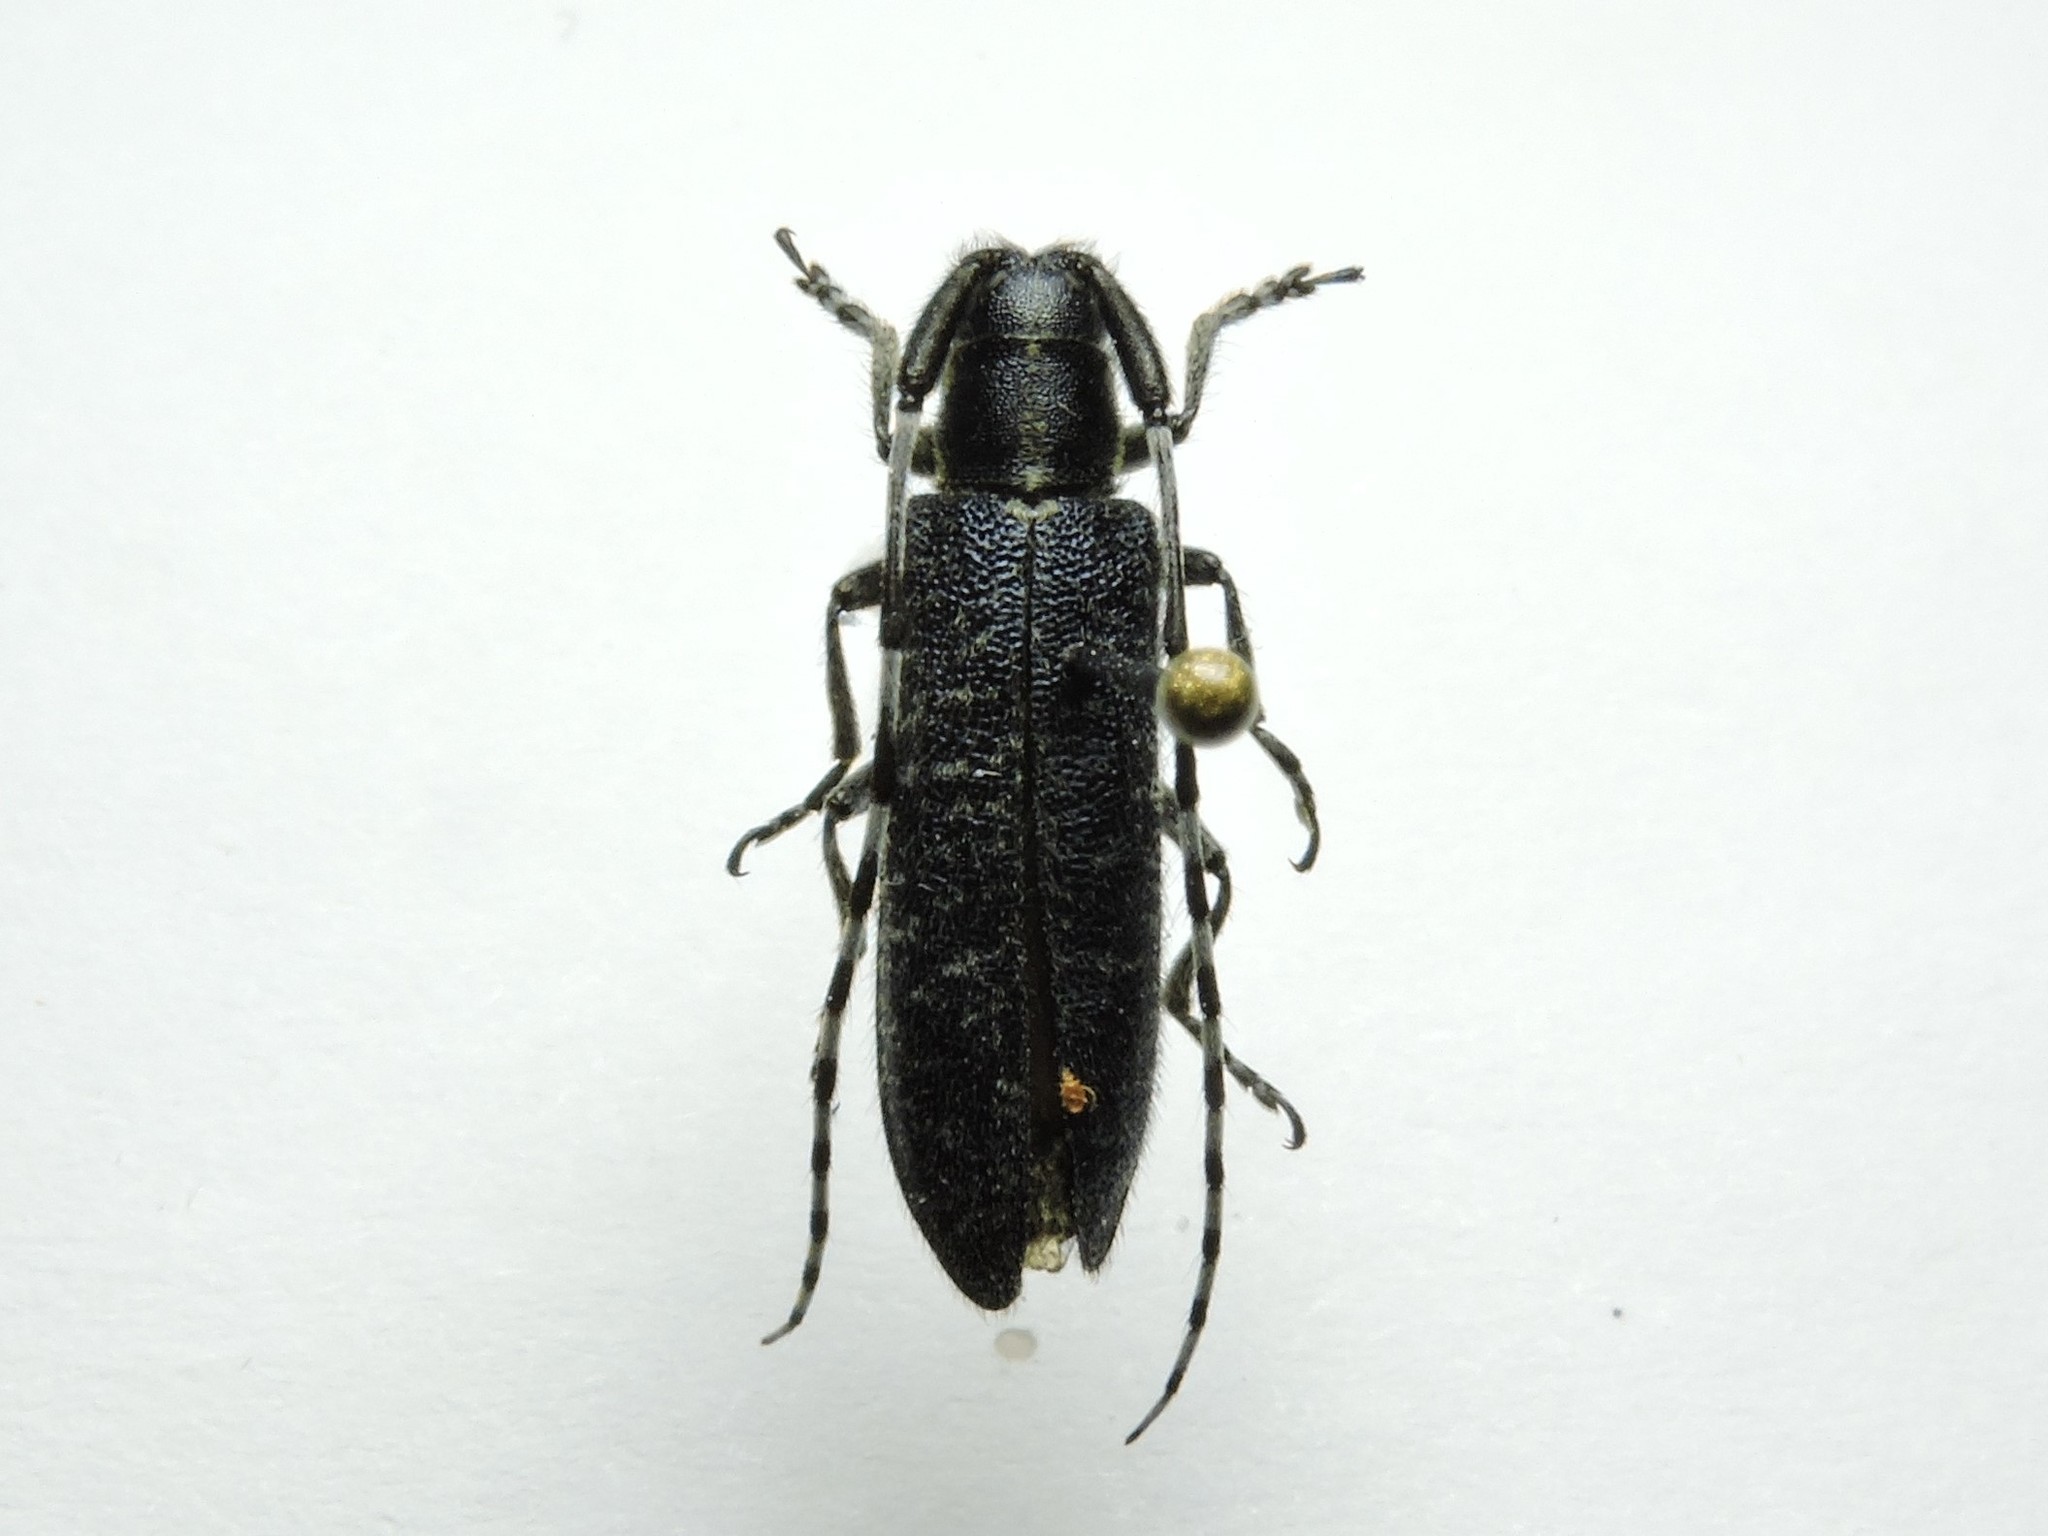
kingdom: Animalia
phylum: Arthropoda
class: Insecta
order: Coleoptera
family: Cerambycidae
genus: Agapanthia
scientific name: Agapanthia subchalybaea
